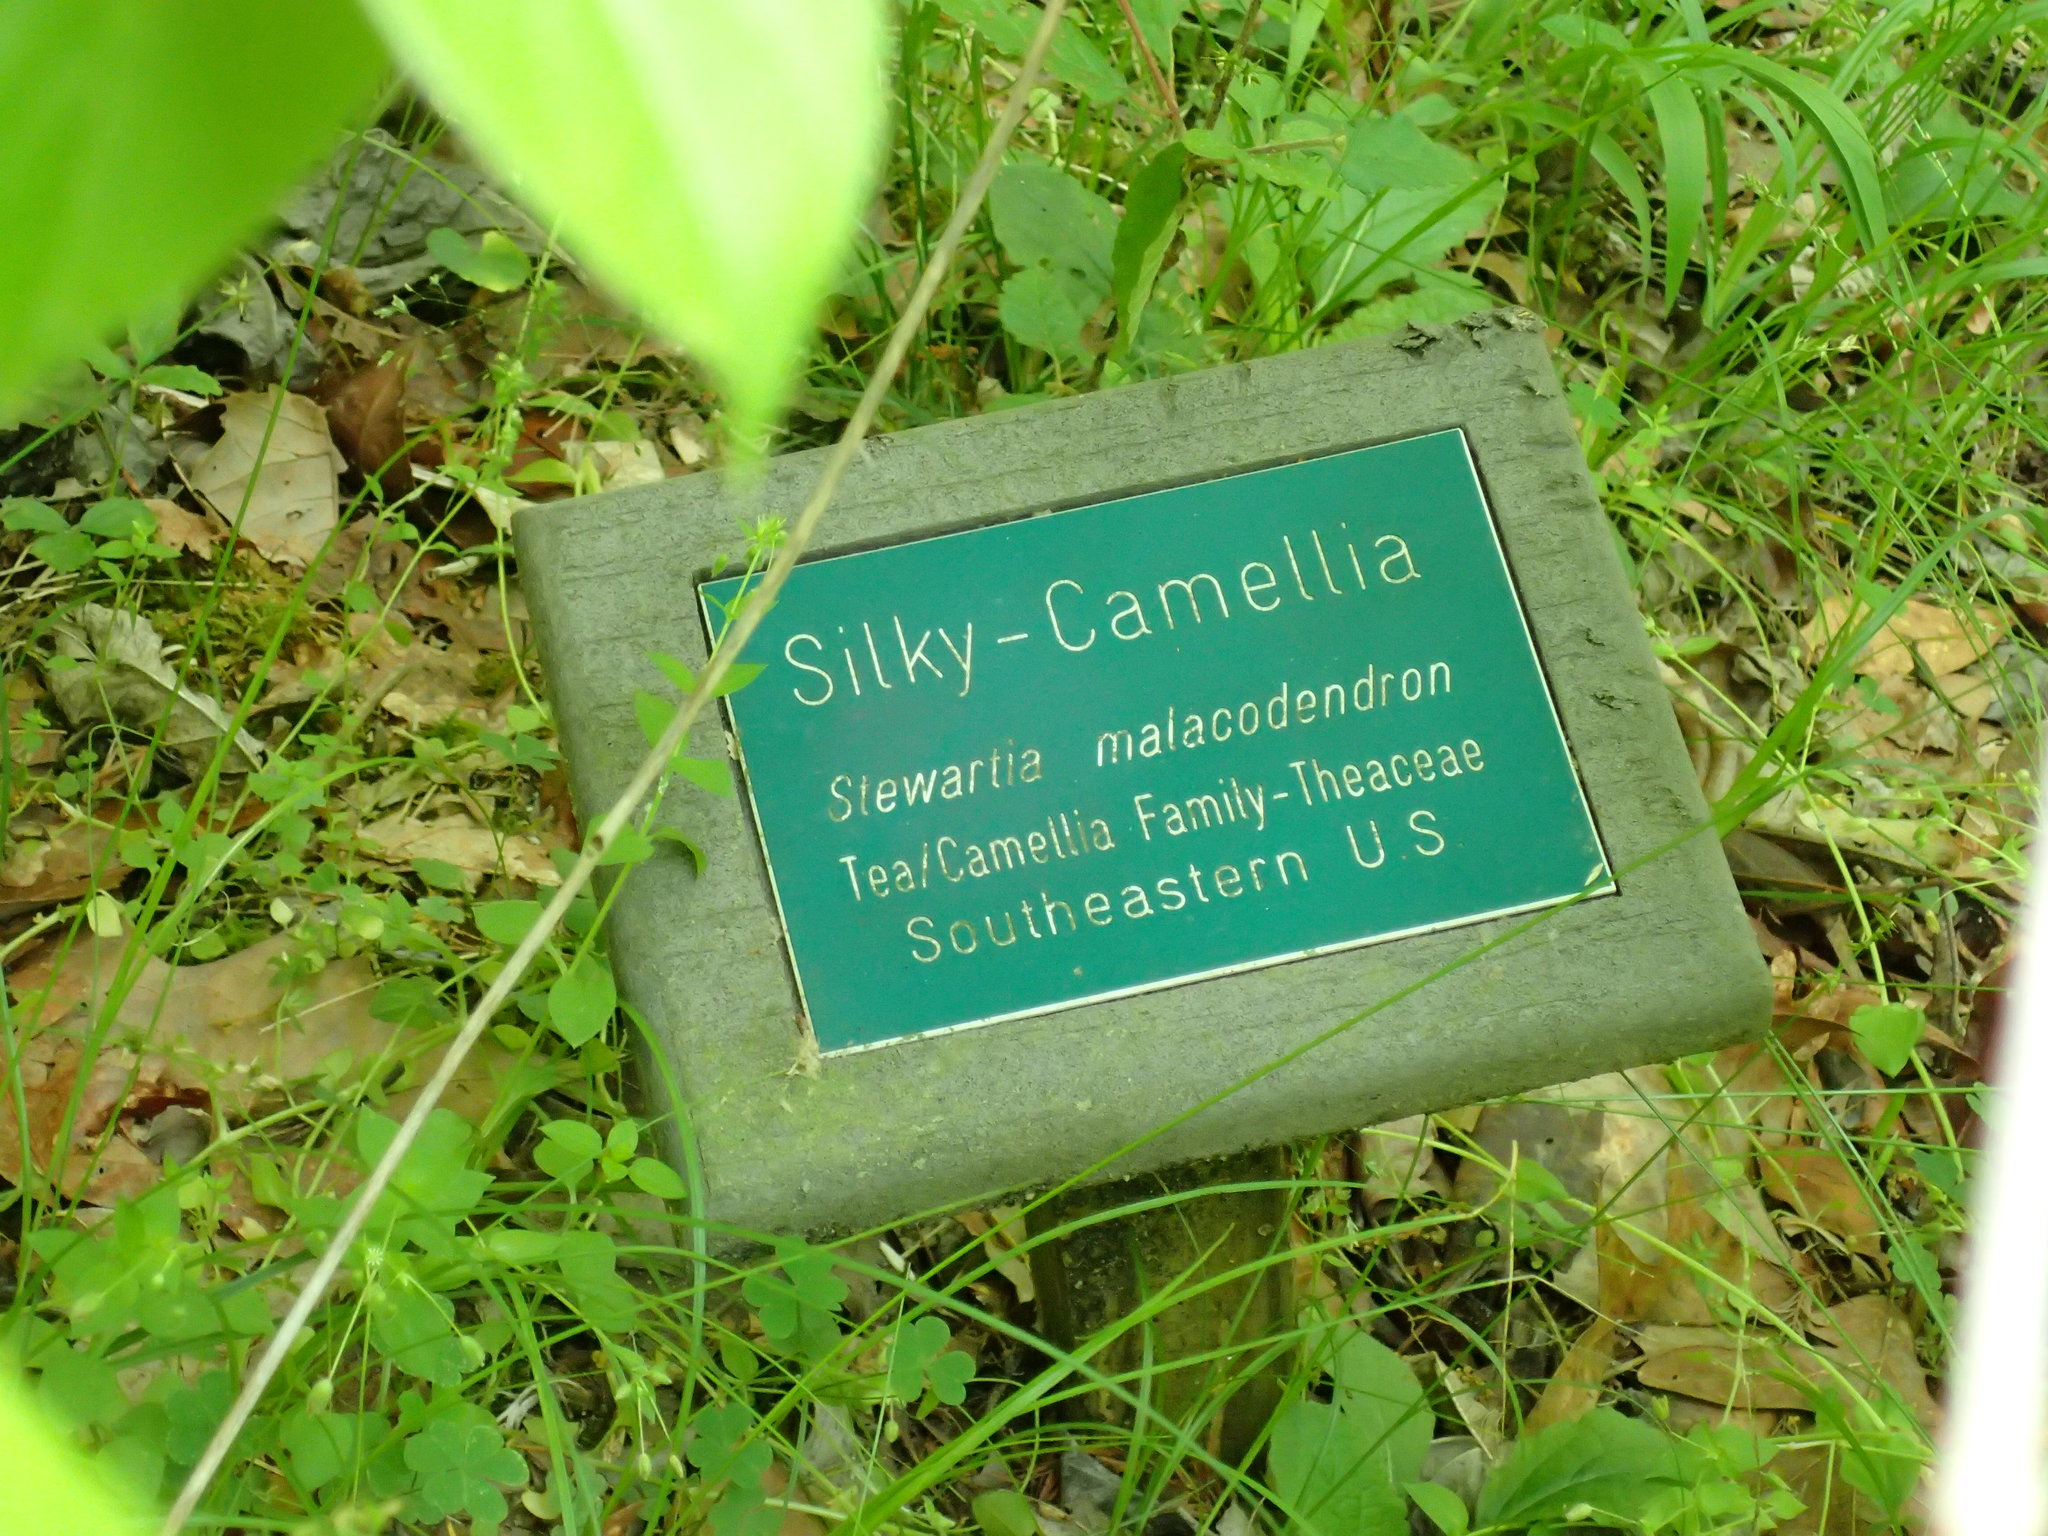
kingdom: Plantae
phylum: Tracheophyta
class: Magnoliopsida
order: Ericales
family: Theaceae
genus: Stewartia
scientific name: Stewartia malacodendron
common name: Virginia stewartia
